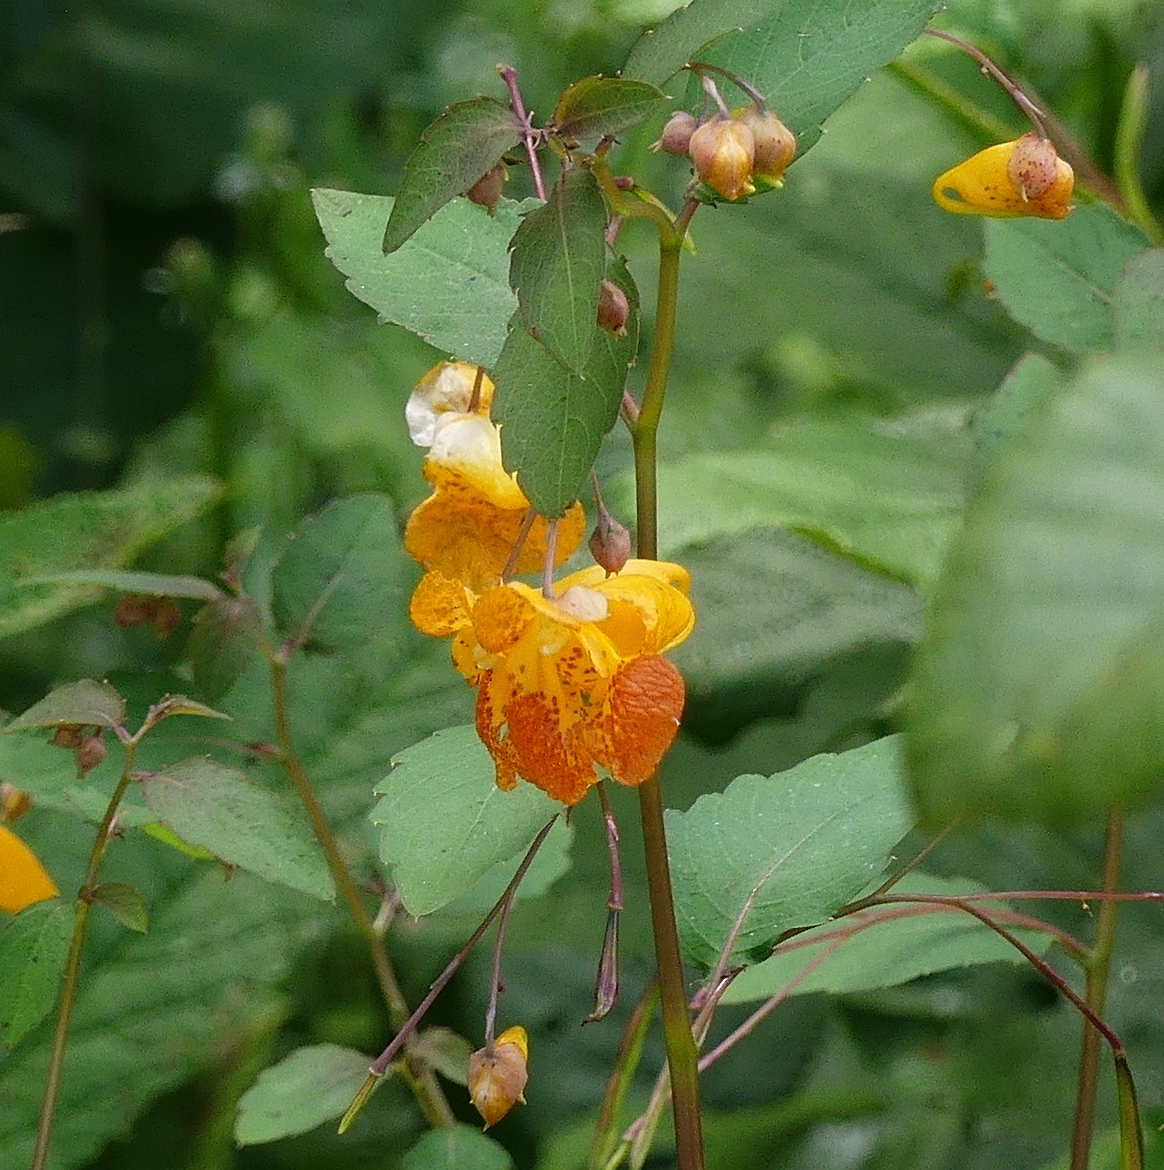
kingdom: Plantae
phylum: Tracheophyta
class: Magnoliopsida
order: Ericales
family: Balsaminaceae
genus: Impatiens
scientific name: Impatiens capensis
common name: Orange balsam
